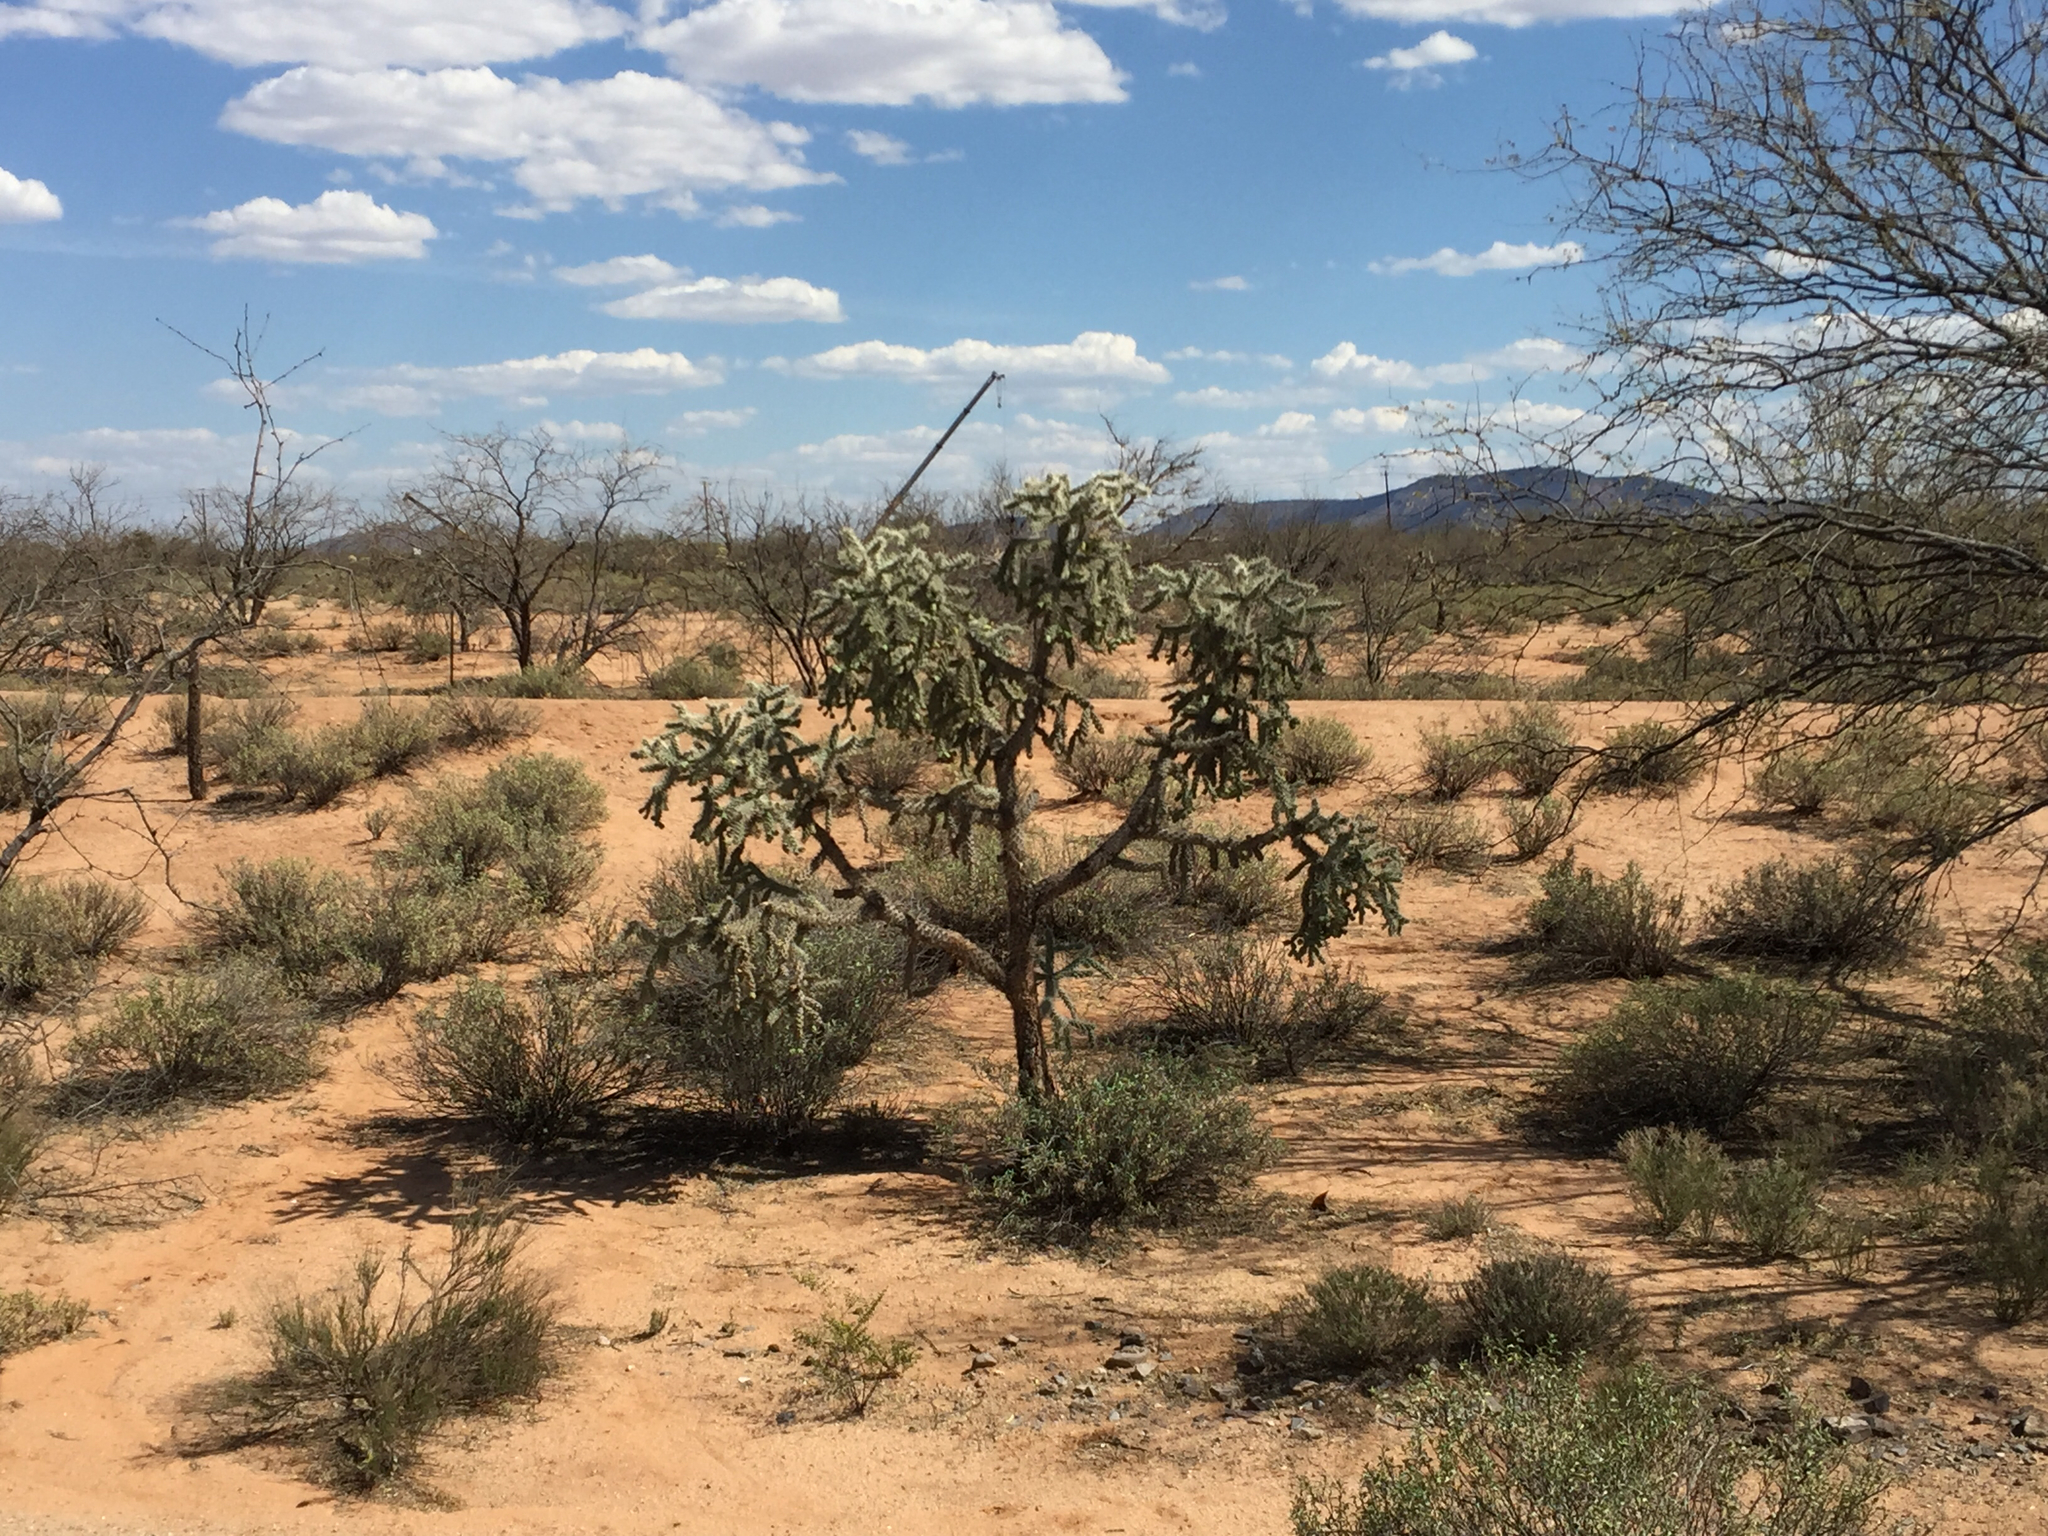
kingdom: Plantae
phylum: Tracheophyta
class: Magnoliopsida
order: Caryophyllales
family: Cactaceae
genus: Cylindropuntia
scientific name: Cylindropuntia fulgida
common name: Jumping cholla
